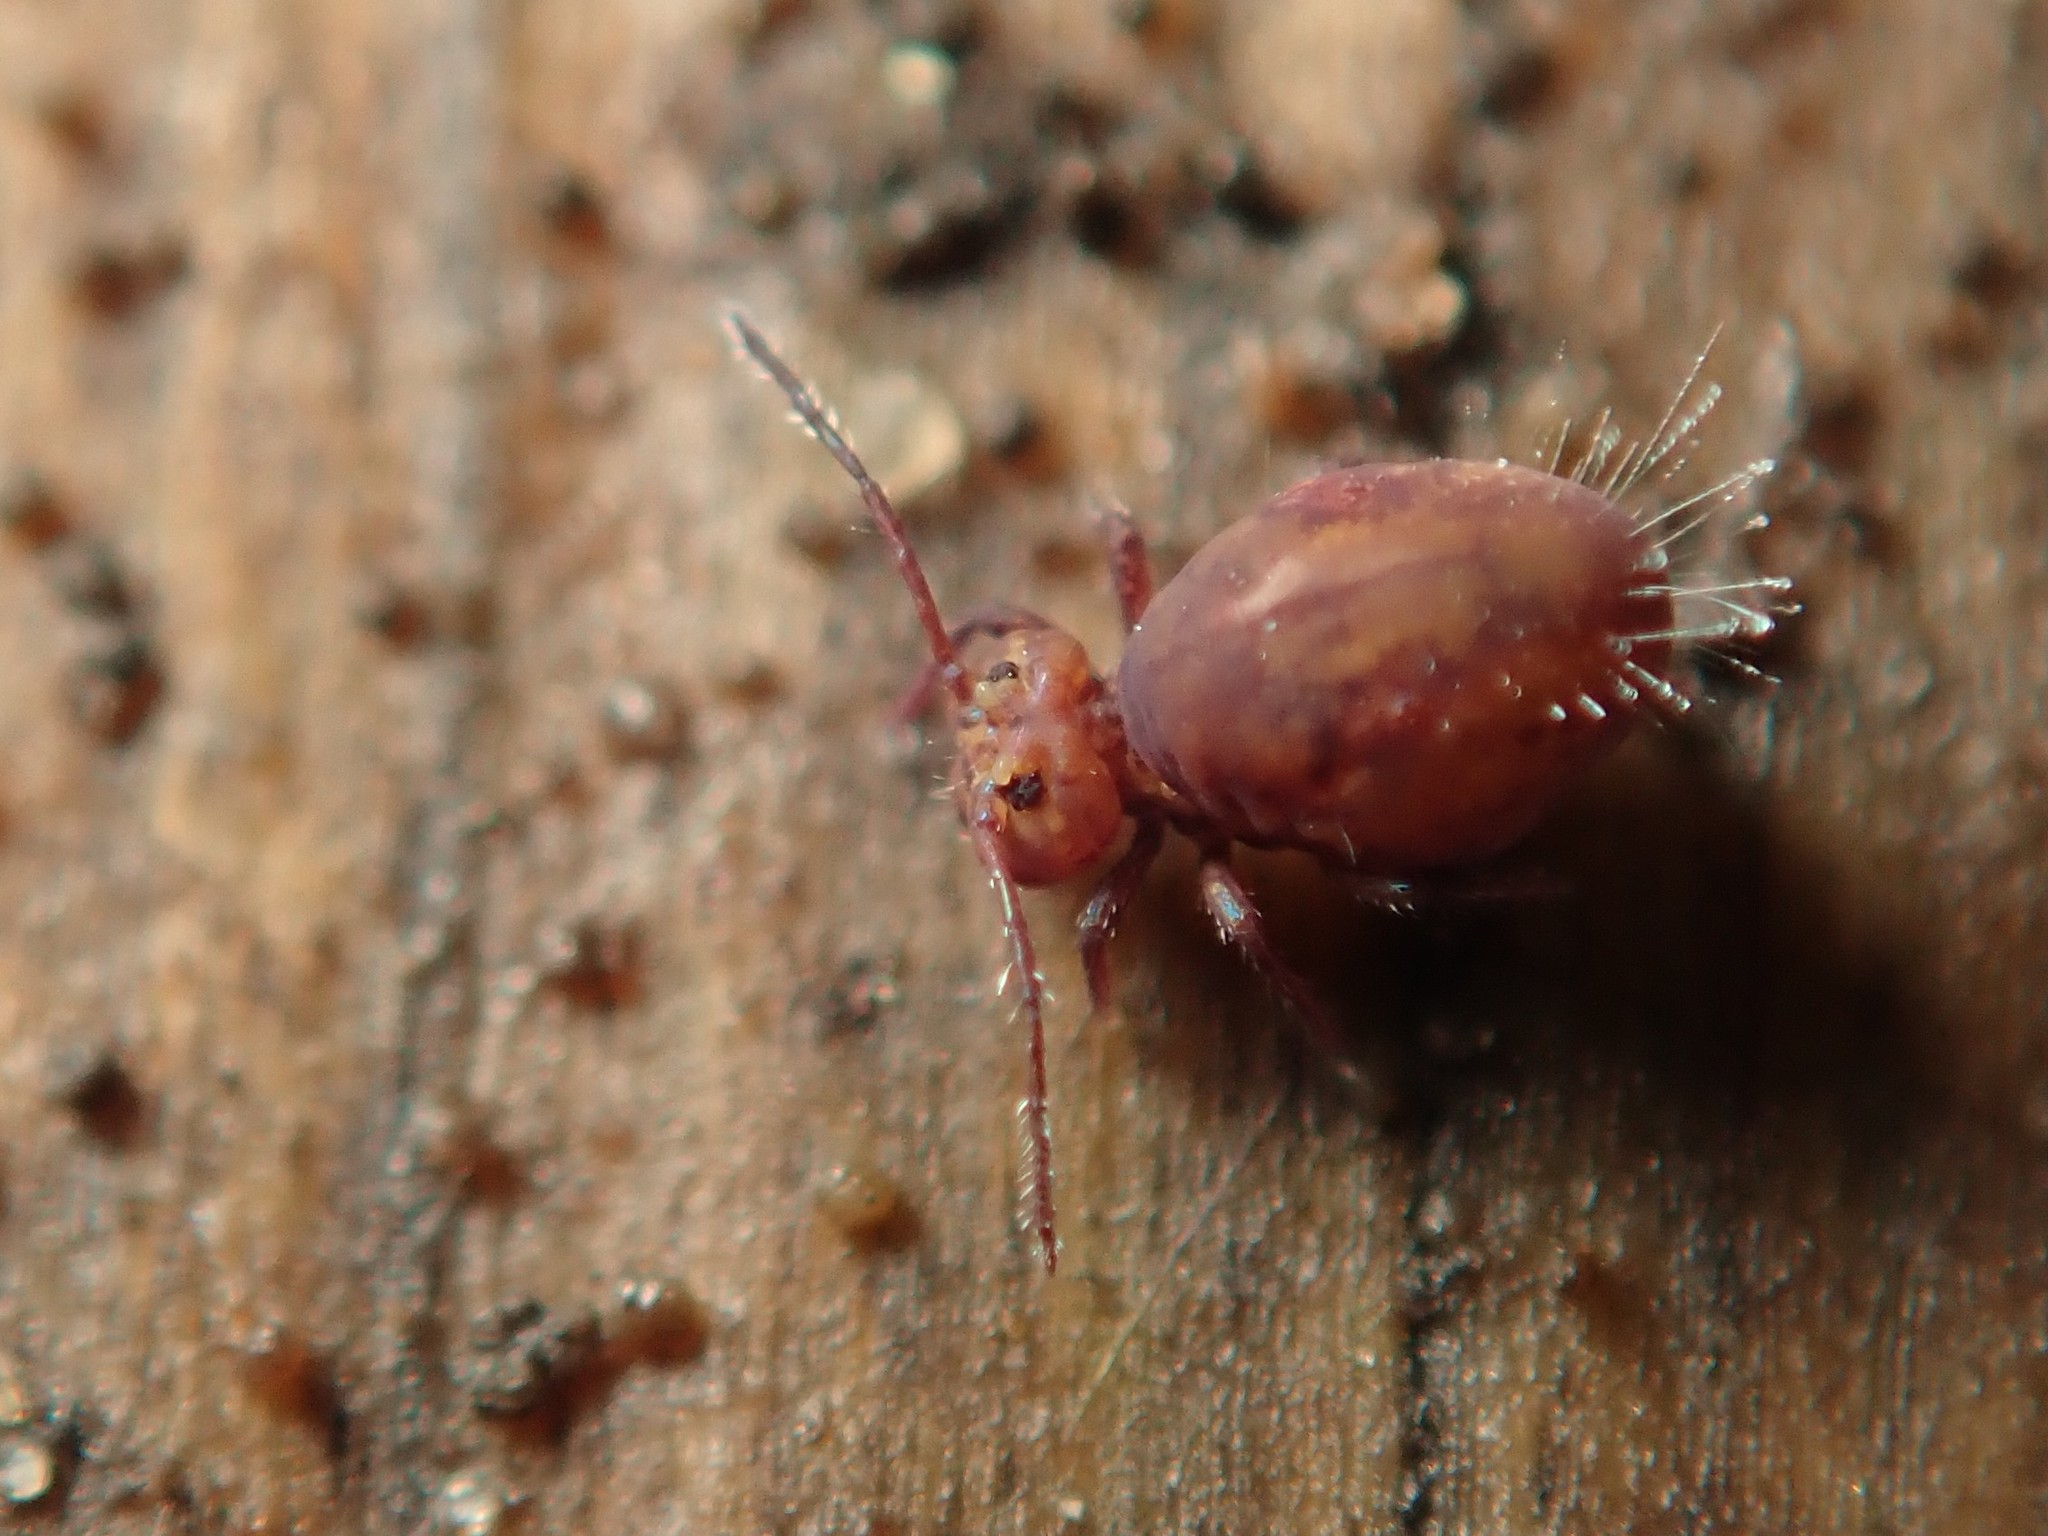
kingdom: Animalia
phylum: Arthropoda
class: Collembola
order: Symphypleona
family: Dicyrtomidae
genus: Dicyrtoma
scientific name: Dicyrtoma fusca
